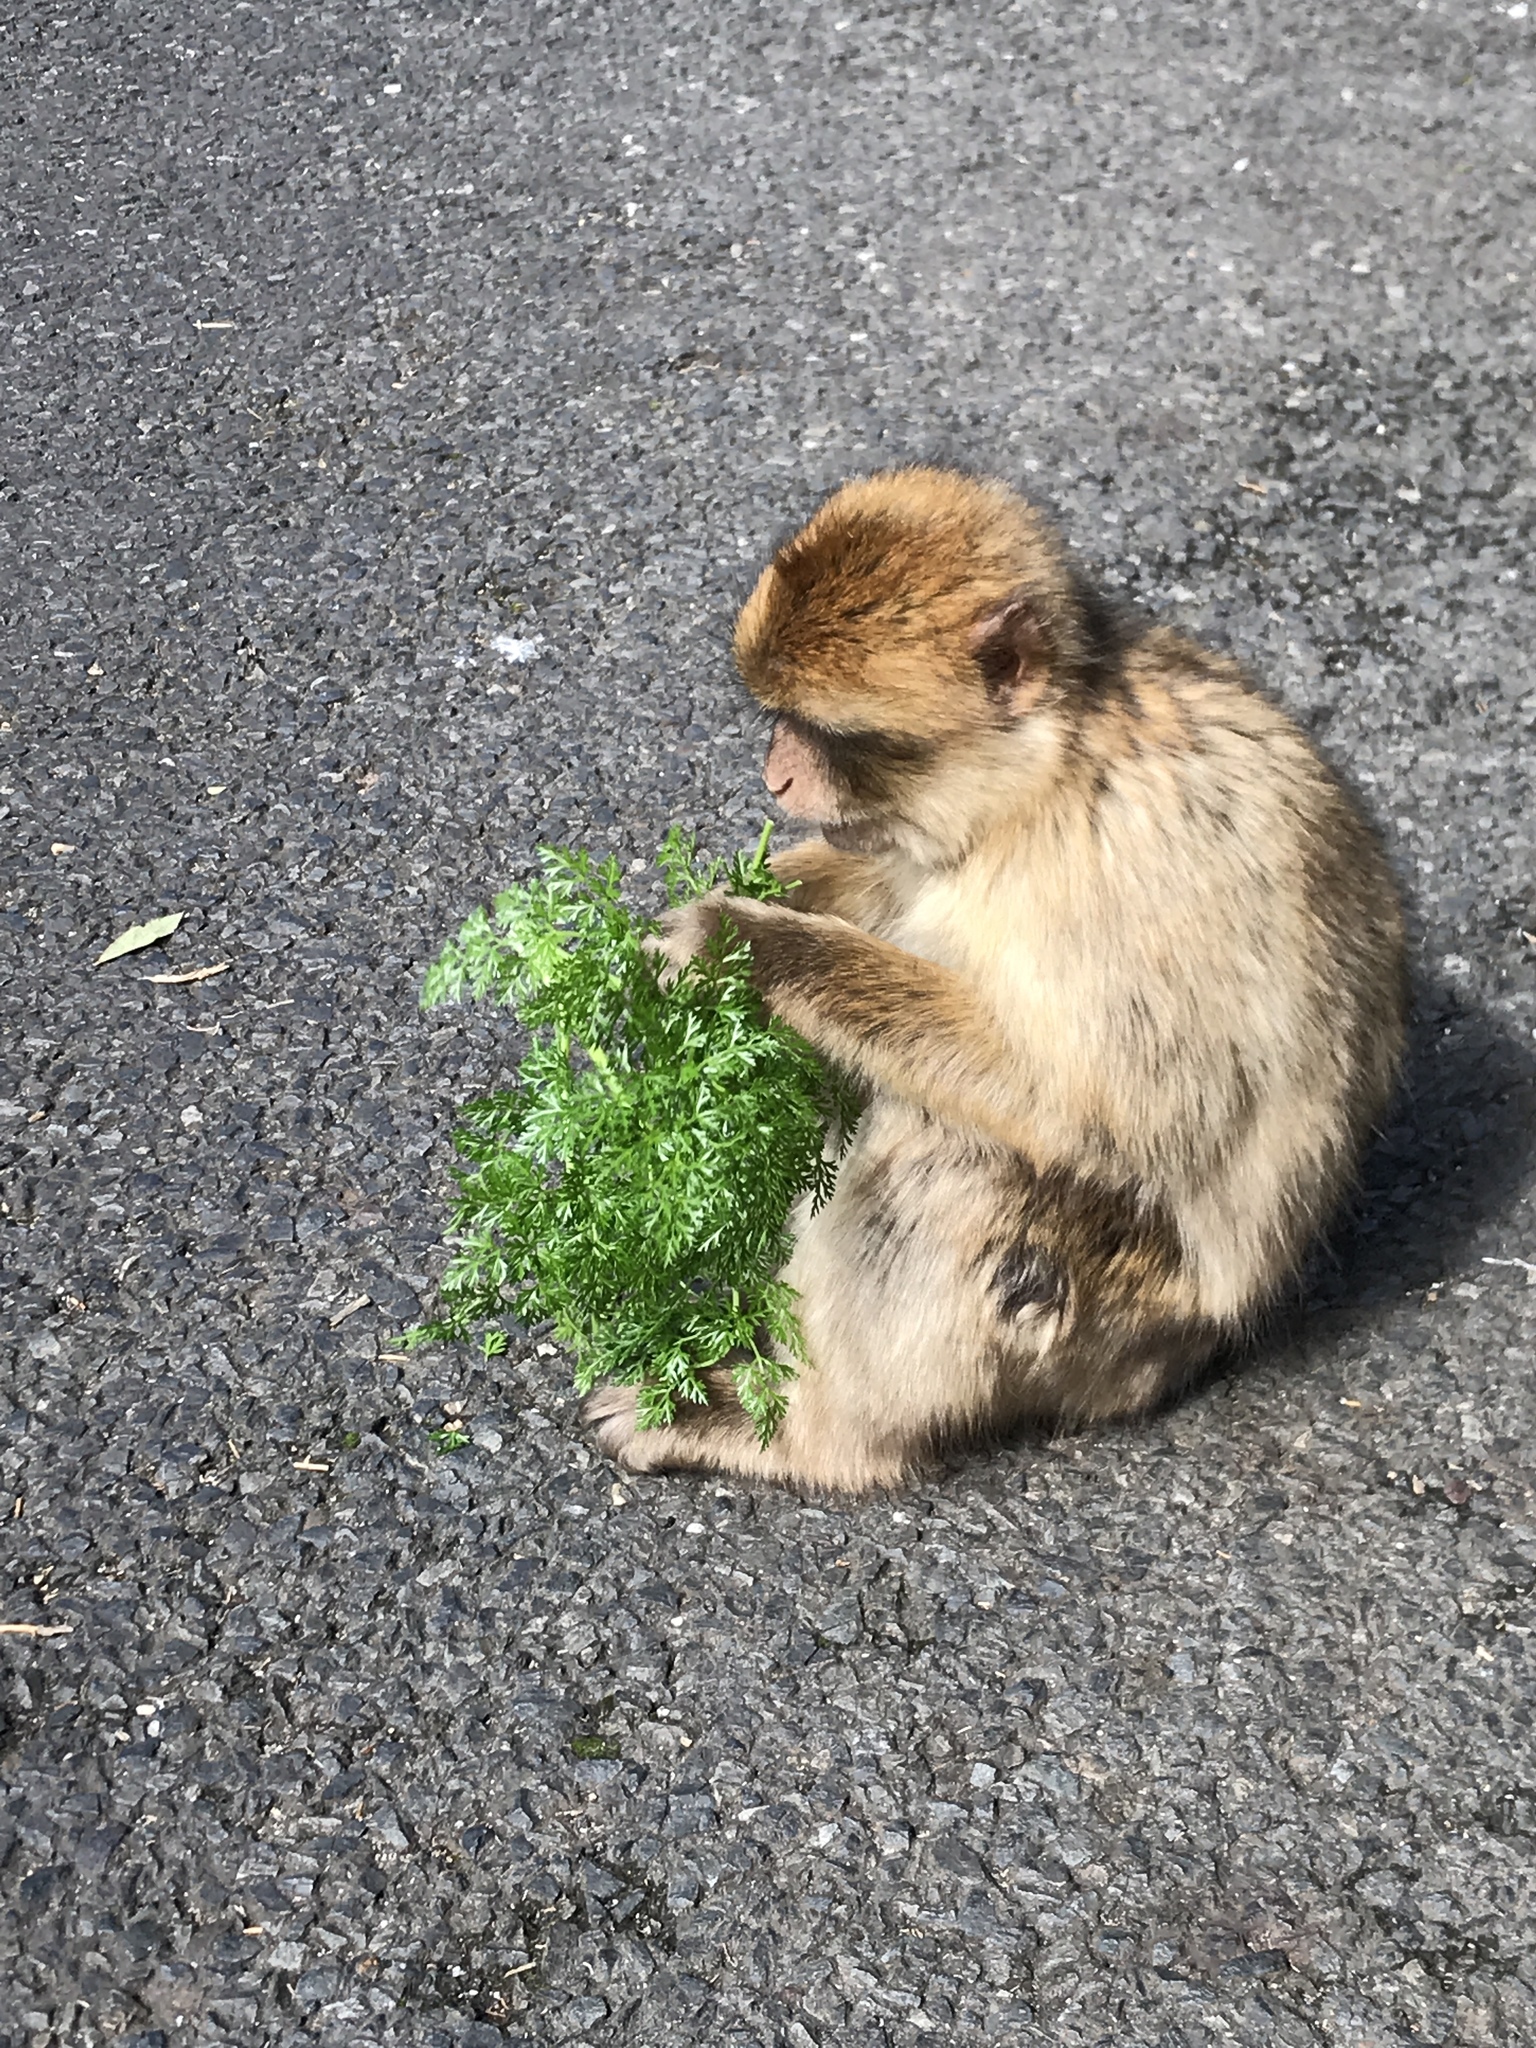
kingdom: Animalia
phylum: Chordata
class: Mammalia
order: Primates
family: Cercopithecidae
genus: Macaca
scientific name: Macaca sylvanus
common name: Barbary macaque
